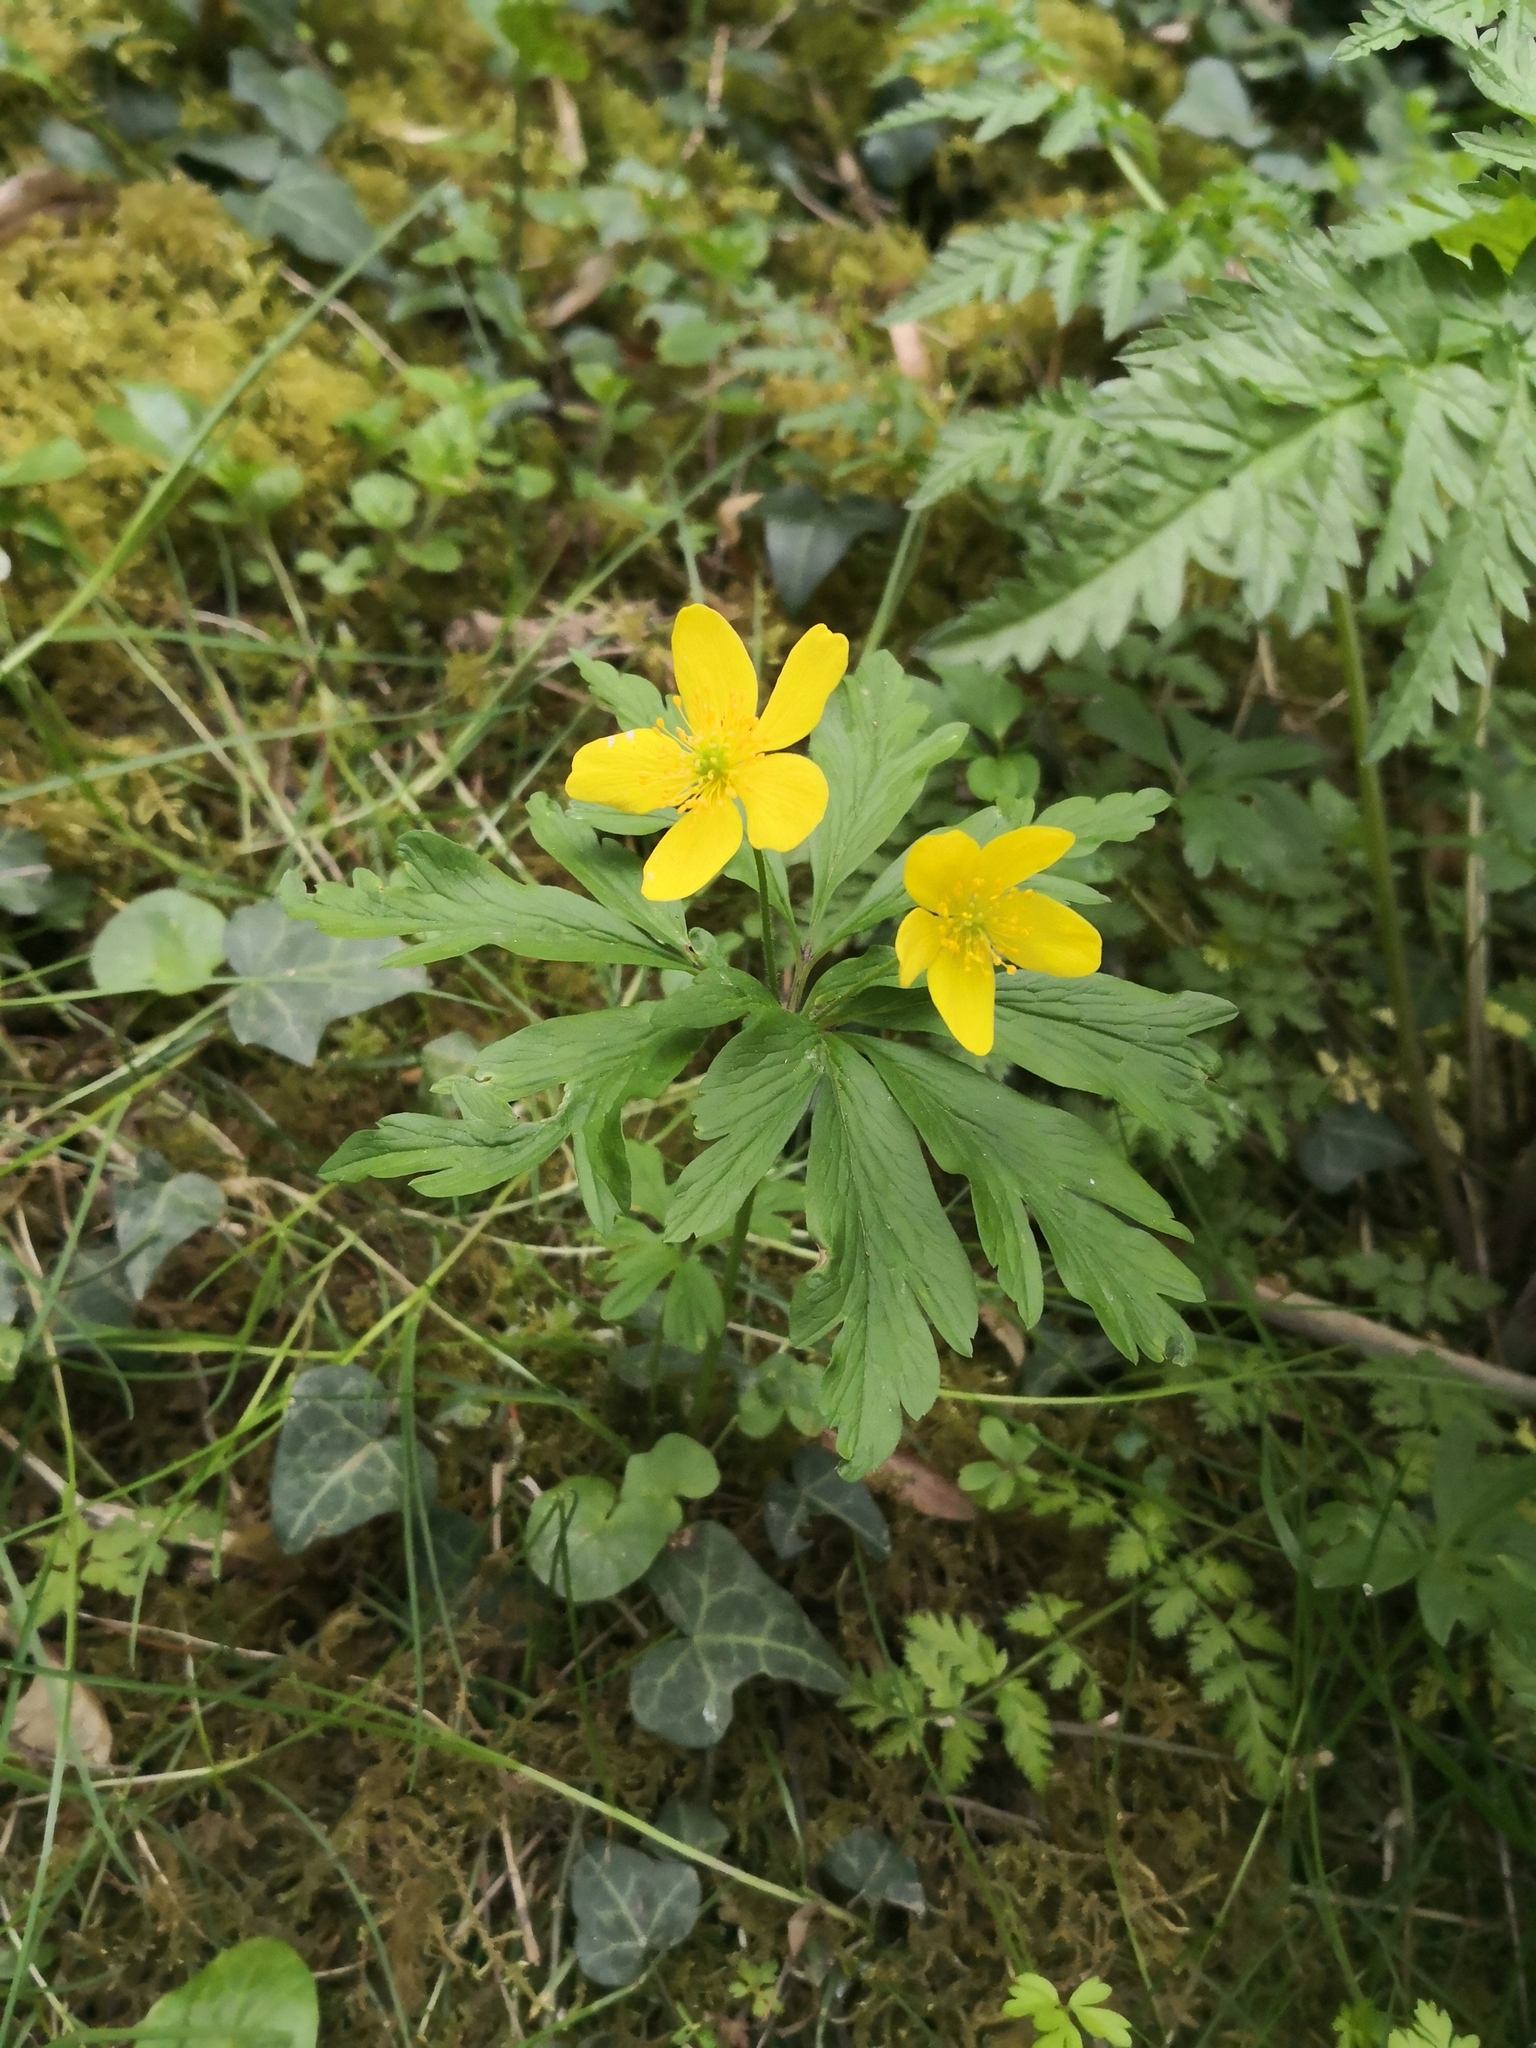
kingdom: Plantae
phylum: Tracheophyta
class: Magnoliopsida
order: Ranunculales
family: Ranunculaceae
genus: Anemone
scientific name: Anemone ranunculoides
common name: Yellow anemone
